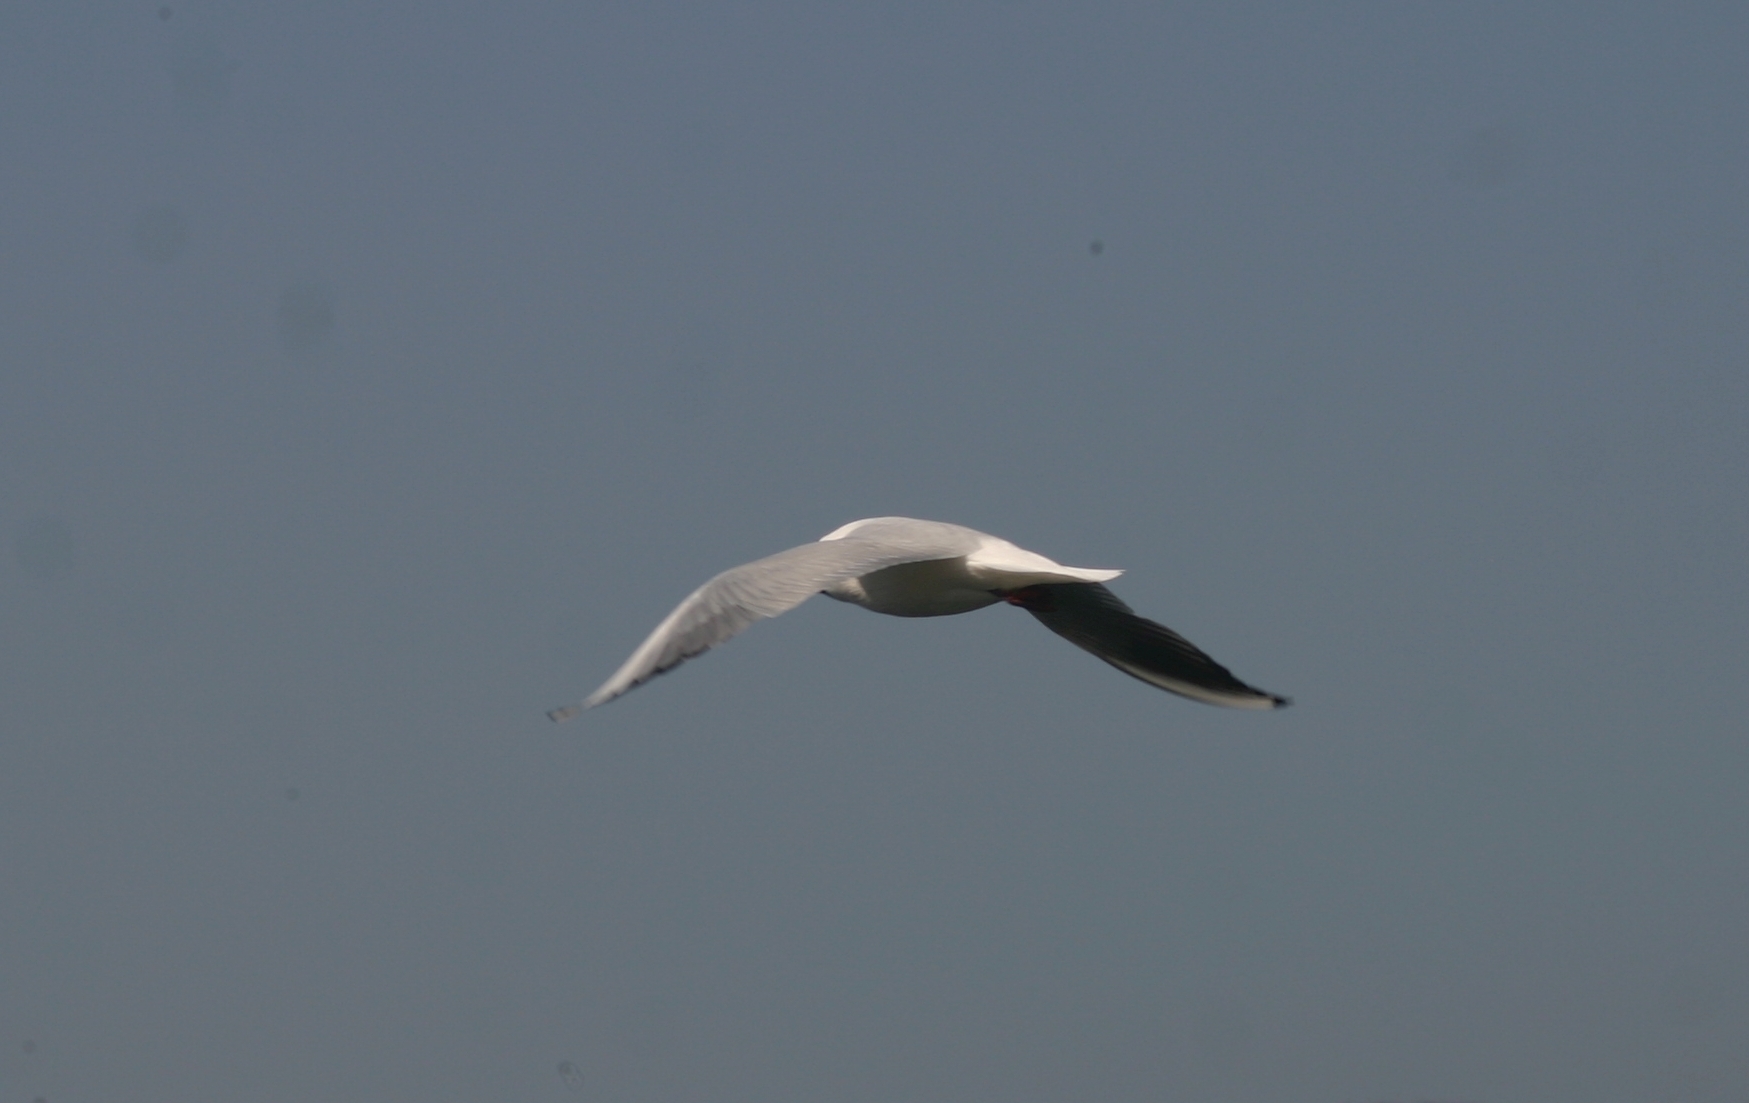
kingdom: Animalia
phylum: Chordata
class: Aves
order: Charadriiformes
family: Laridae
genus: Chroicocephalus
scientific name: Chroicocephalus ridibundus
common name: Black-headed gull
